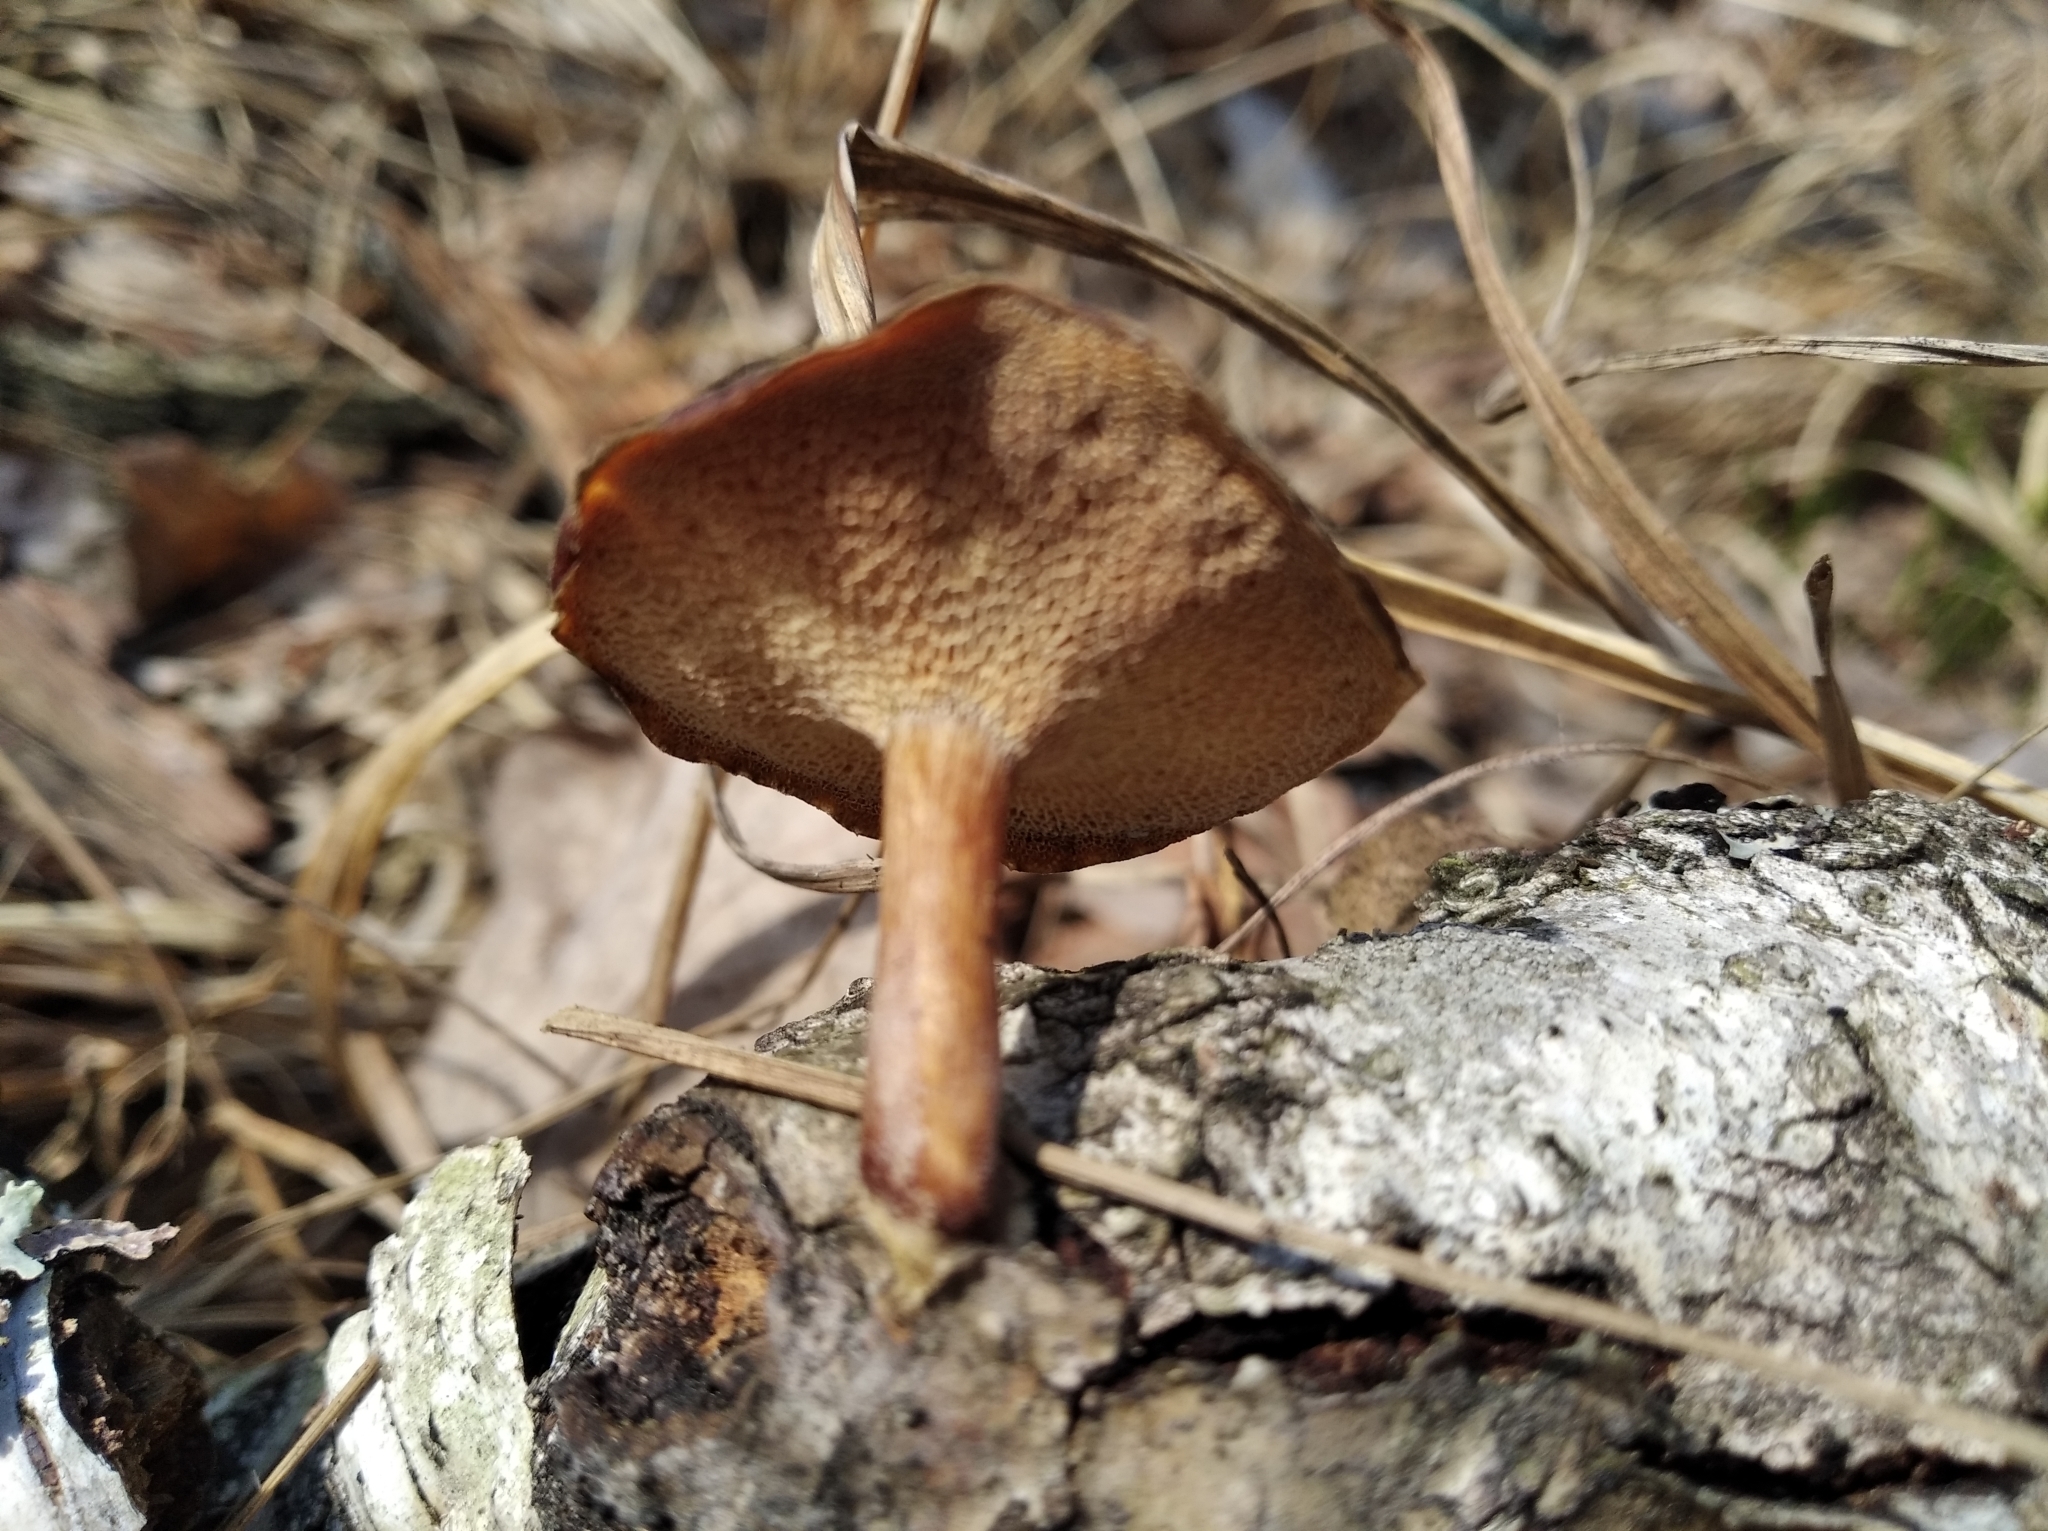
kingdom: Fungi
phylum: Basidiomycota
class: Agaricomycetes
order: Polyporales
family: Polyporaceae
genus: Lentinus
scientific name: Lentinus arcularius
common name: Spring polypore
